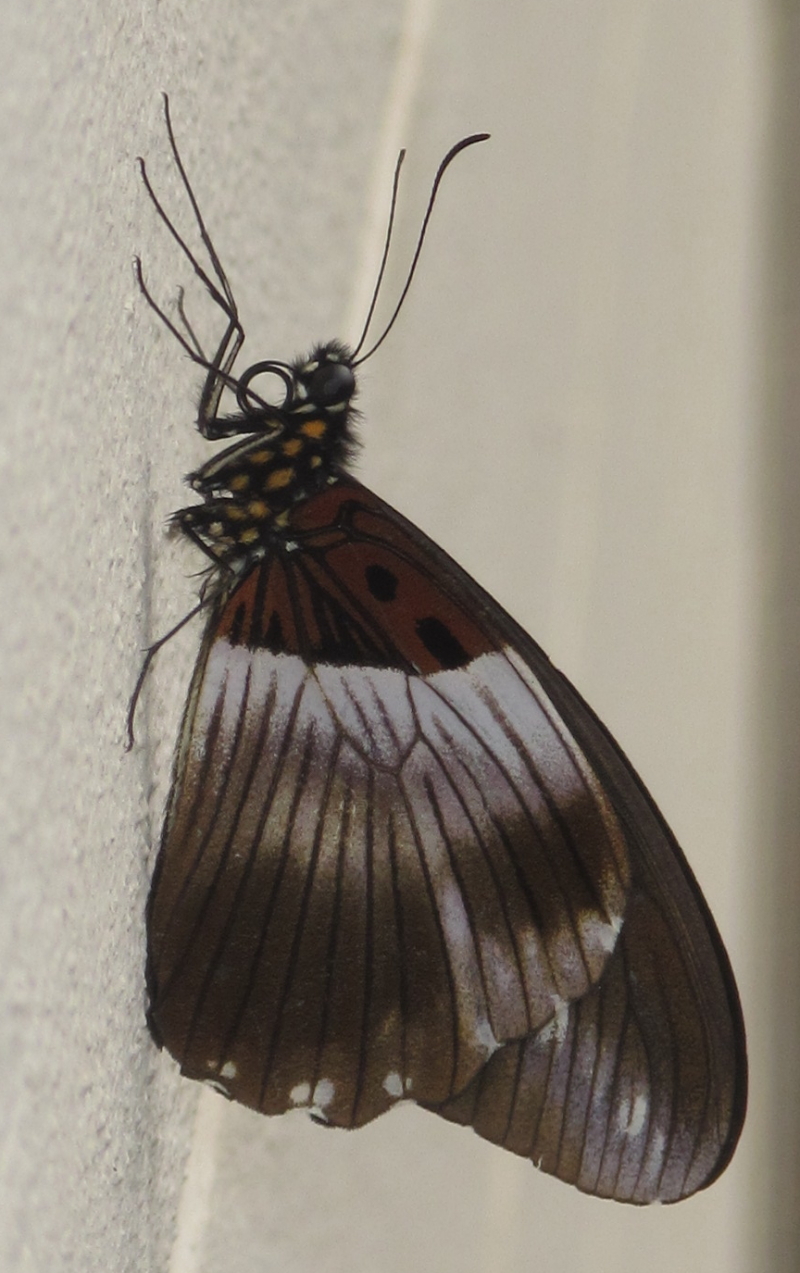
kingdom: Animalia
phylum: Arthropoda
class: Insecta
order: Lepidoptera
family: Papilionidae
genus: Papilio
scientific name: Papilio echerioides
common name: White-banded swallowtail
